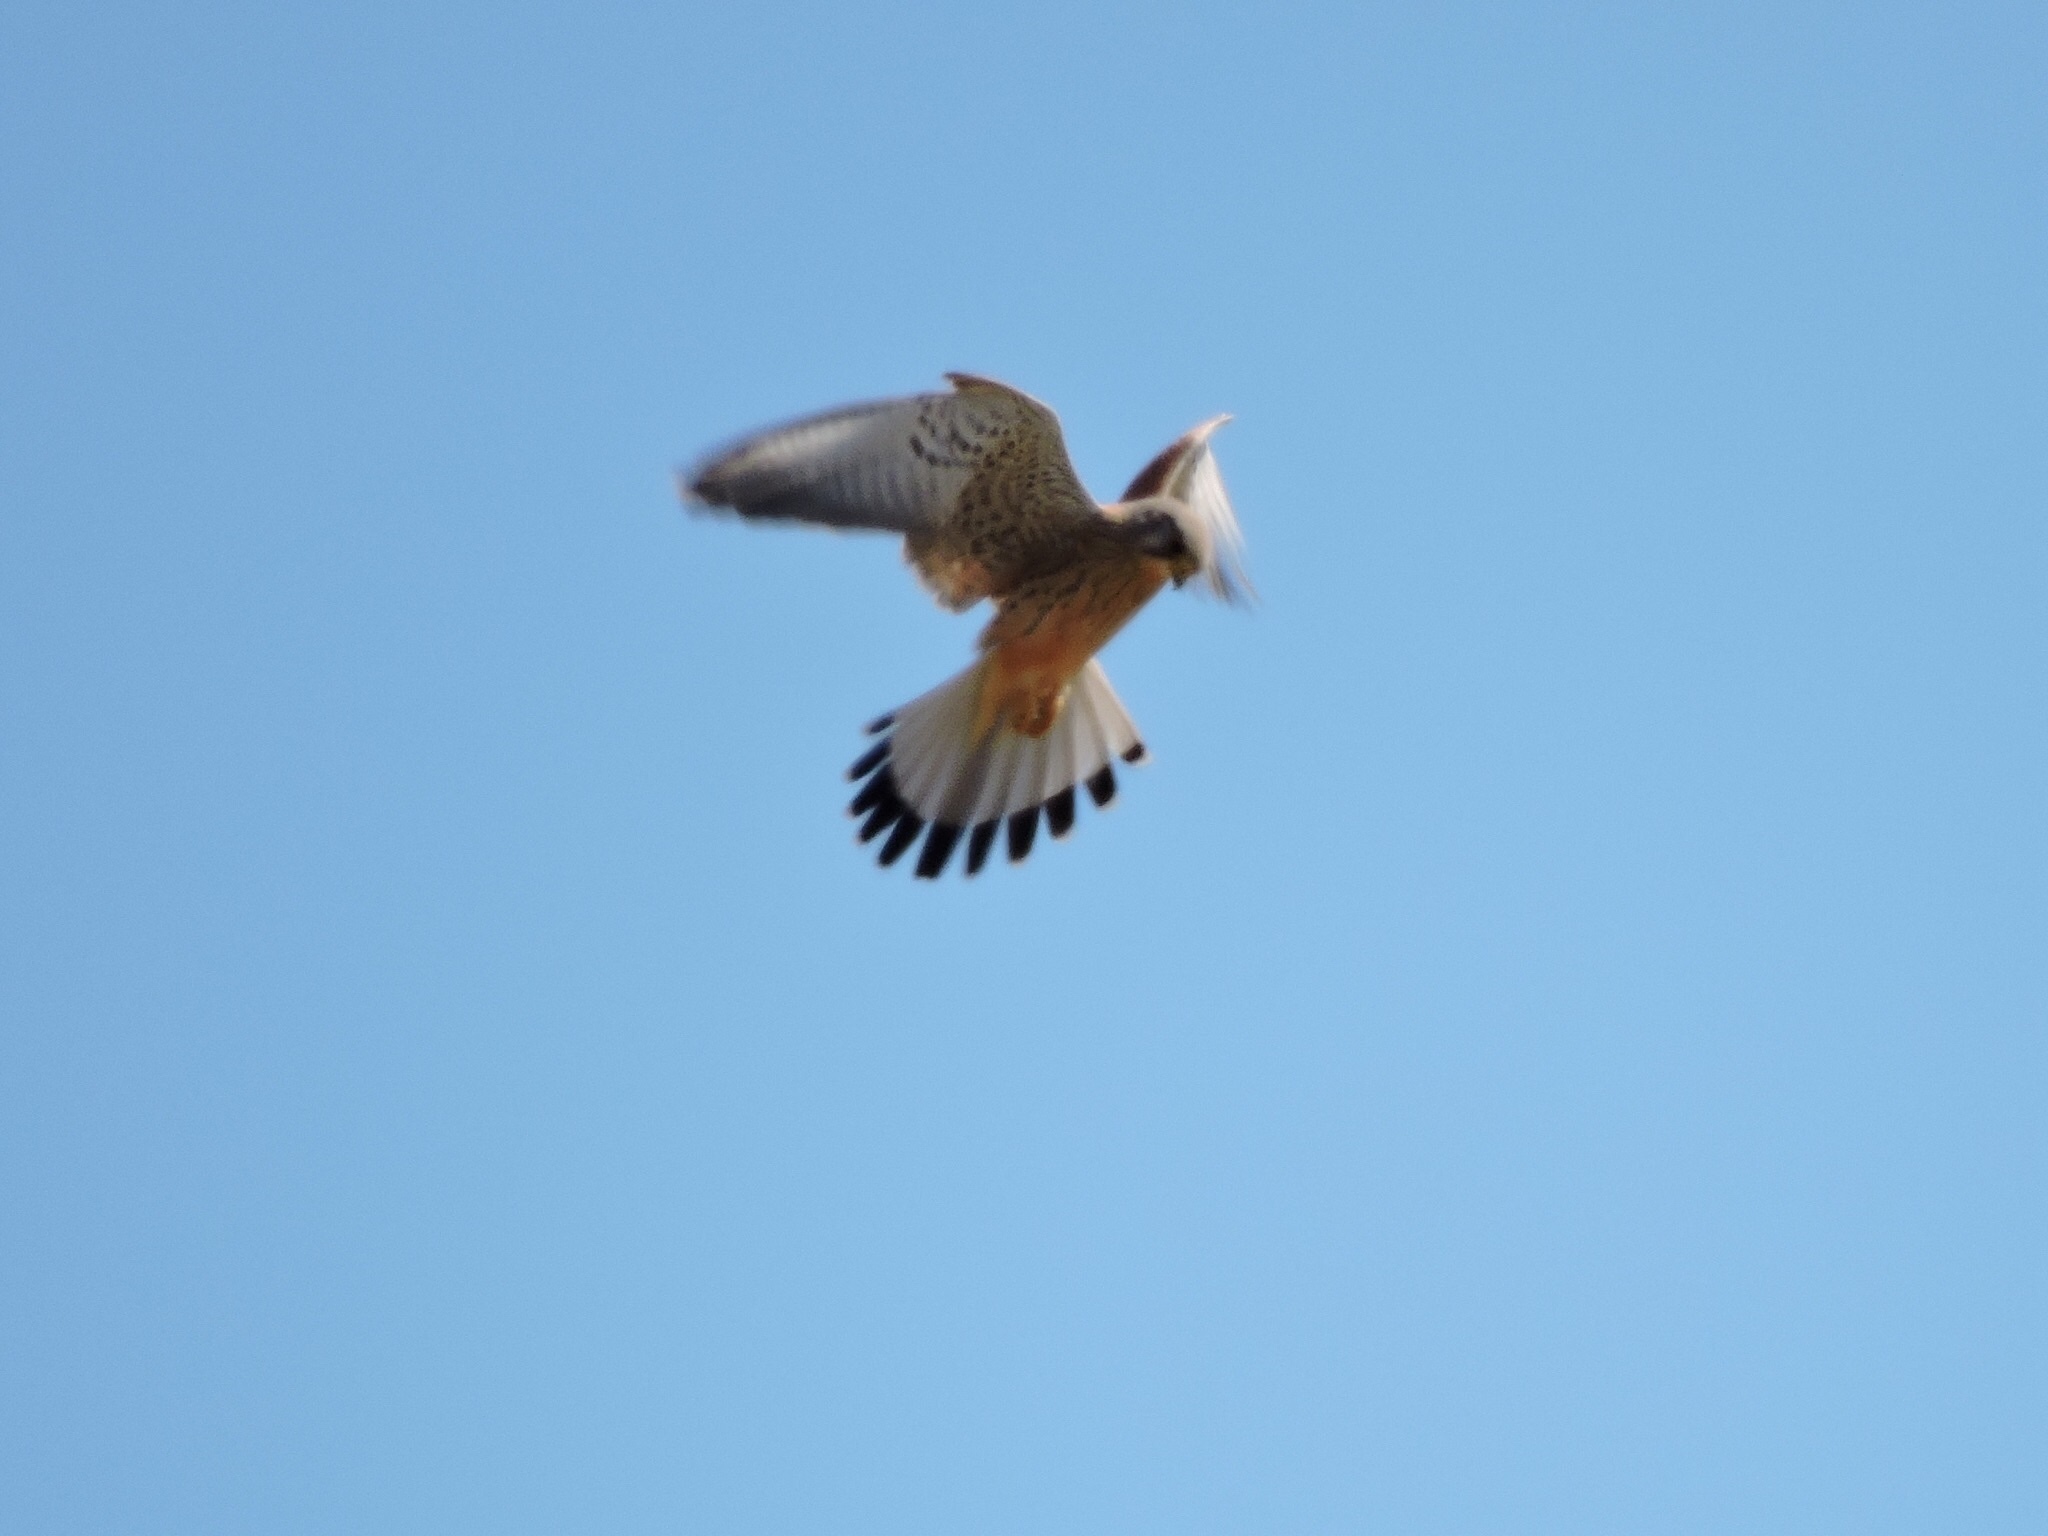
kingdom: Animalia
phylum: Chordata
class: Aves
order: Falconiformes
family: Falconidae
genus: Falco
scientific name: Falco tinnunculus
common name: Common kestrel
